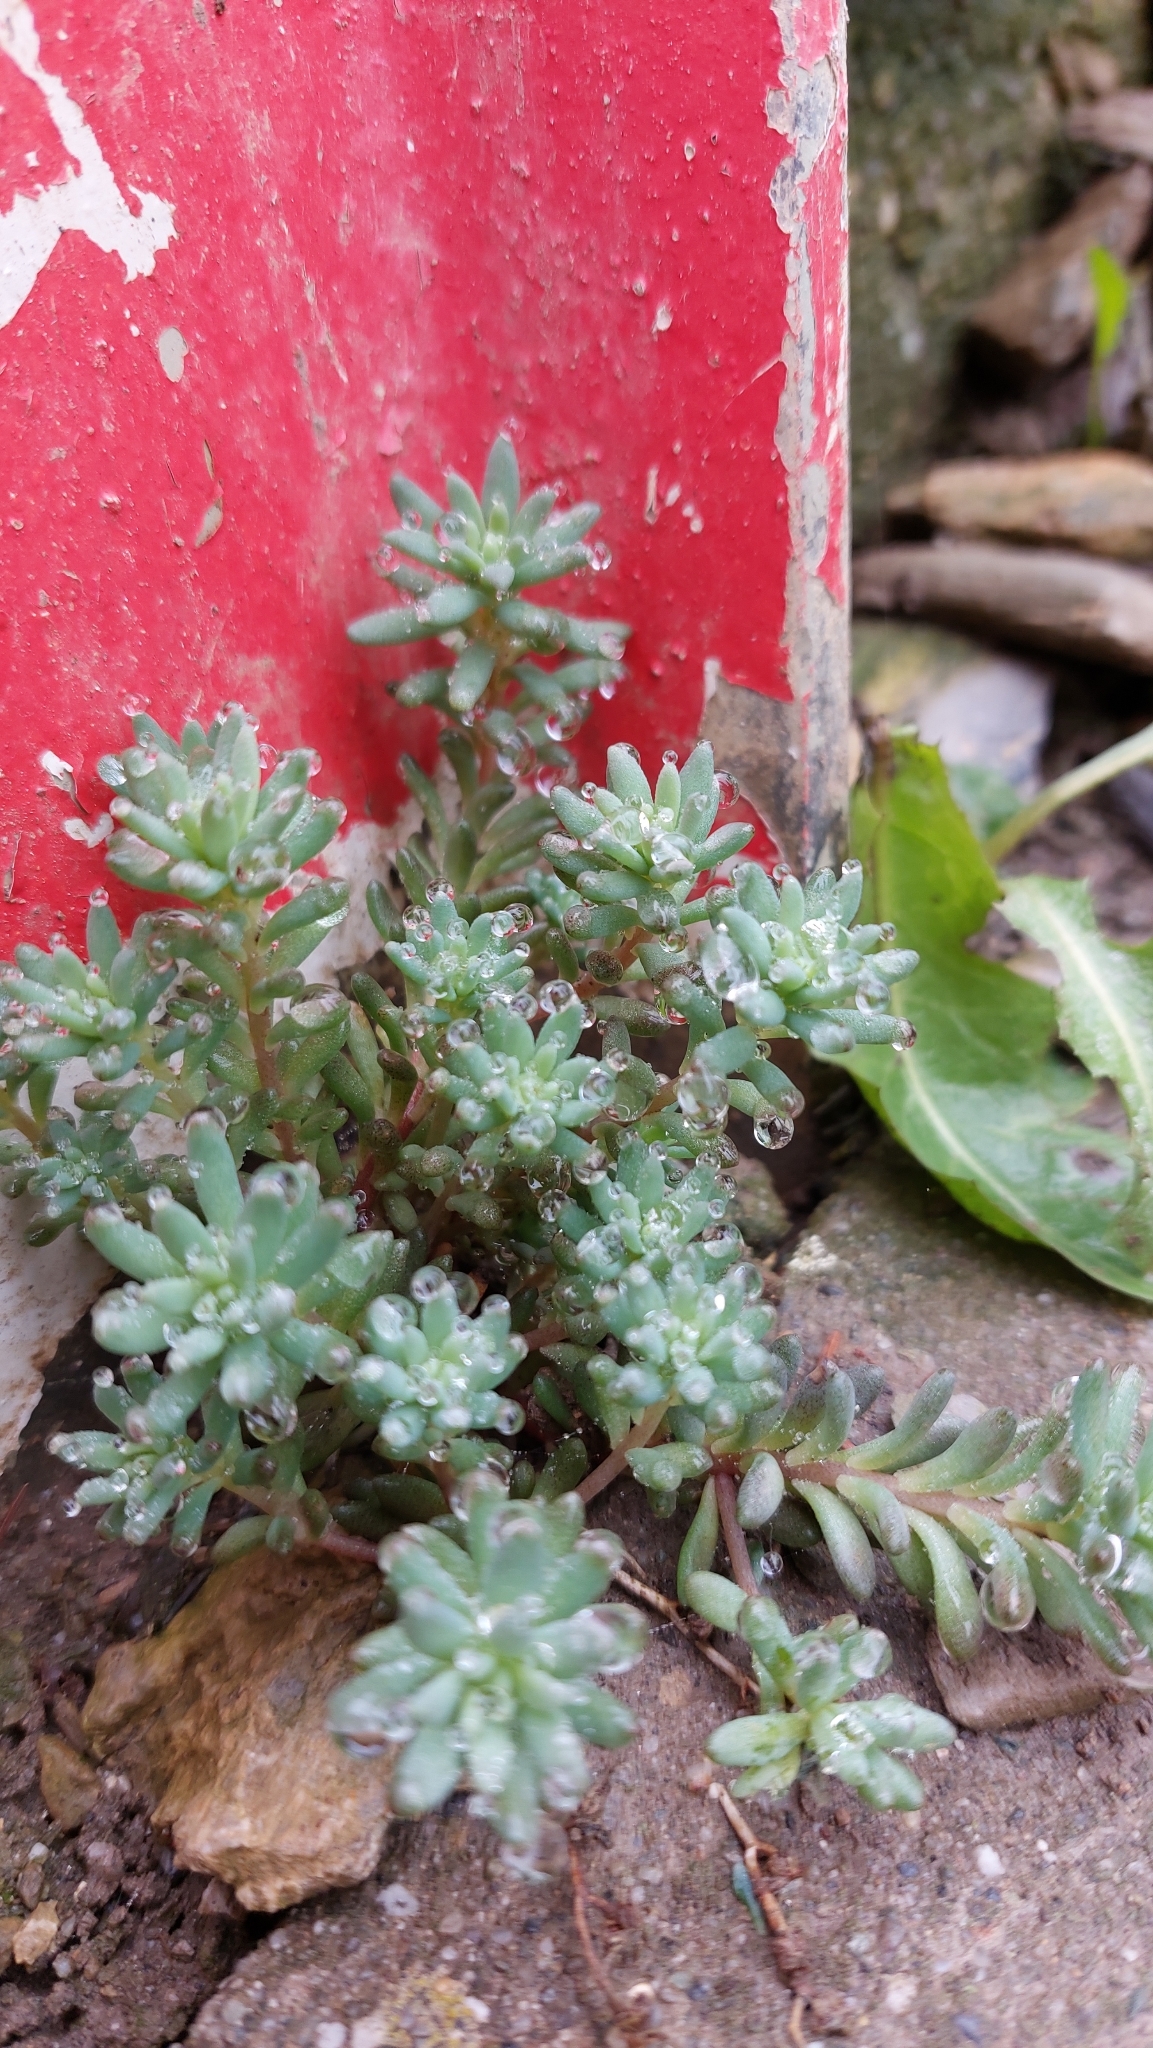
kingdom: Plantae
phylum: Tracheophyta
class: Magnoliopsida
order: Saxifragales
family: Crassulaceae
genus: Sedum
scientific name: Sedum hispanicum
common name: Spanish stonecrop
